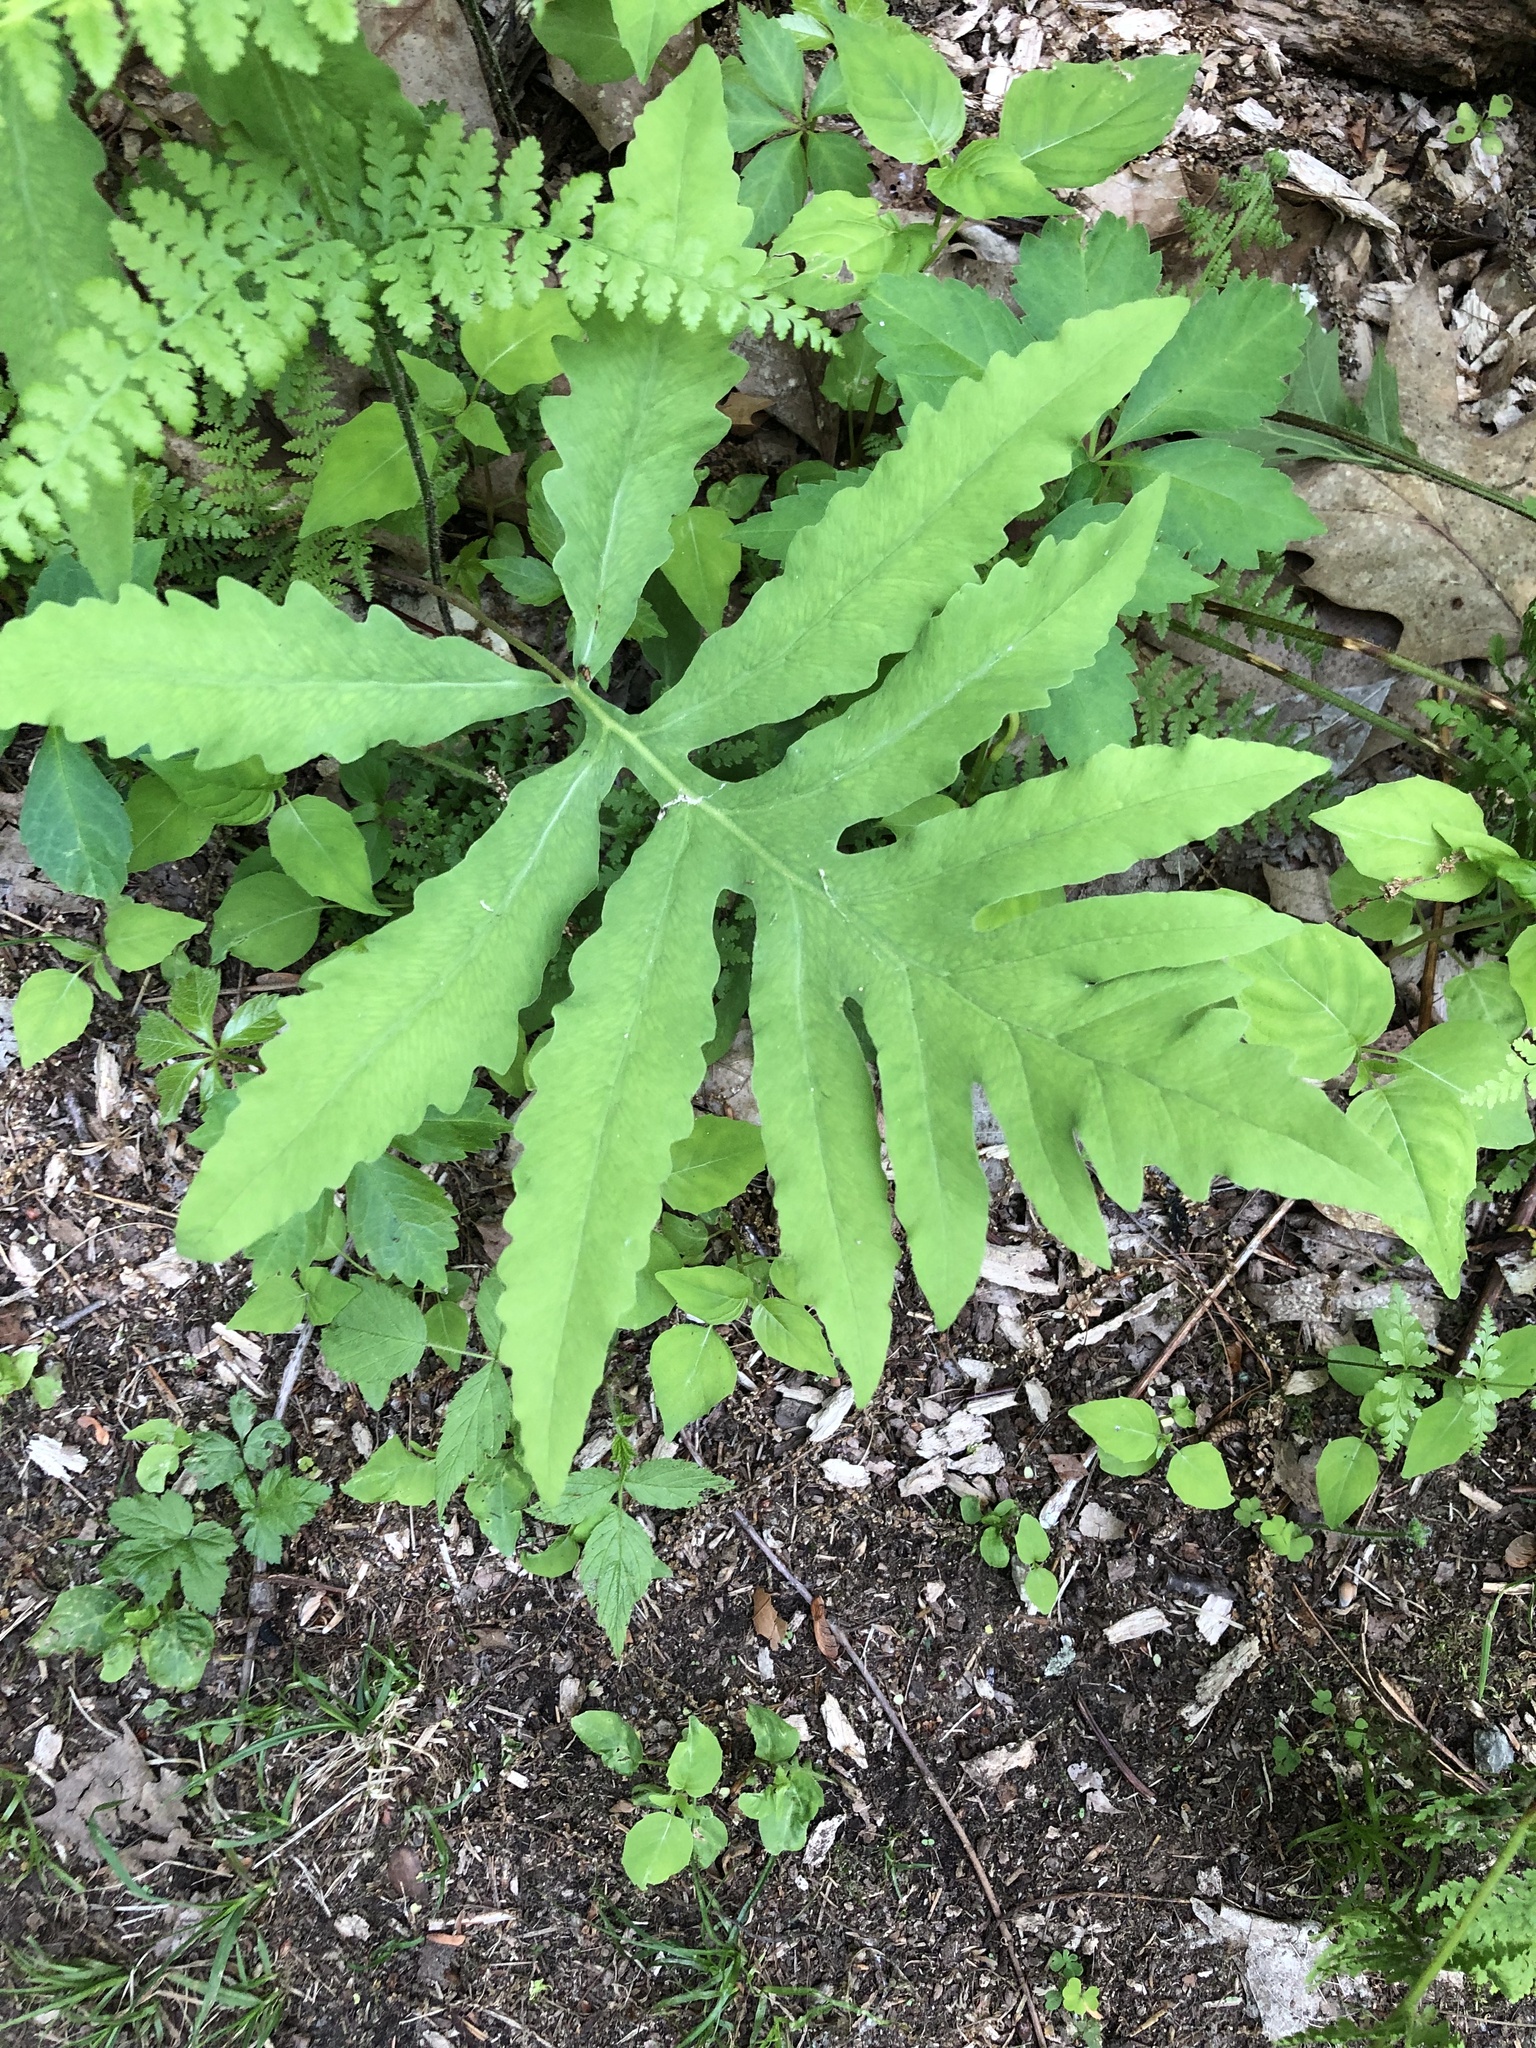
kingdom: Plantae
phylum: Tracheophyta
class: Polypodiopsida
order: Polypodiales
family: Onocleaceae
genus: Onoclea
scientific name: Onoclea sensibilis
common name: Sensitive fern
